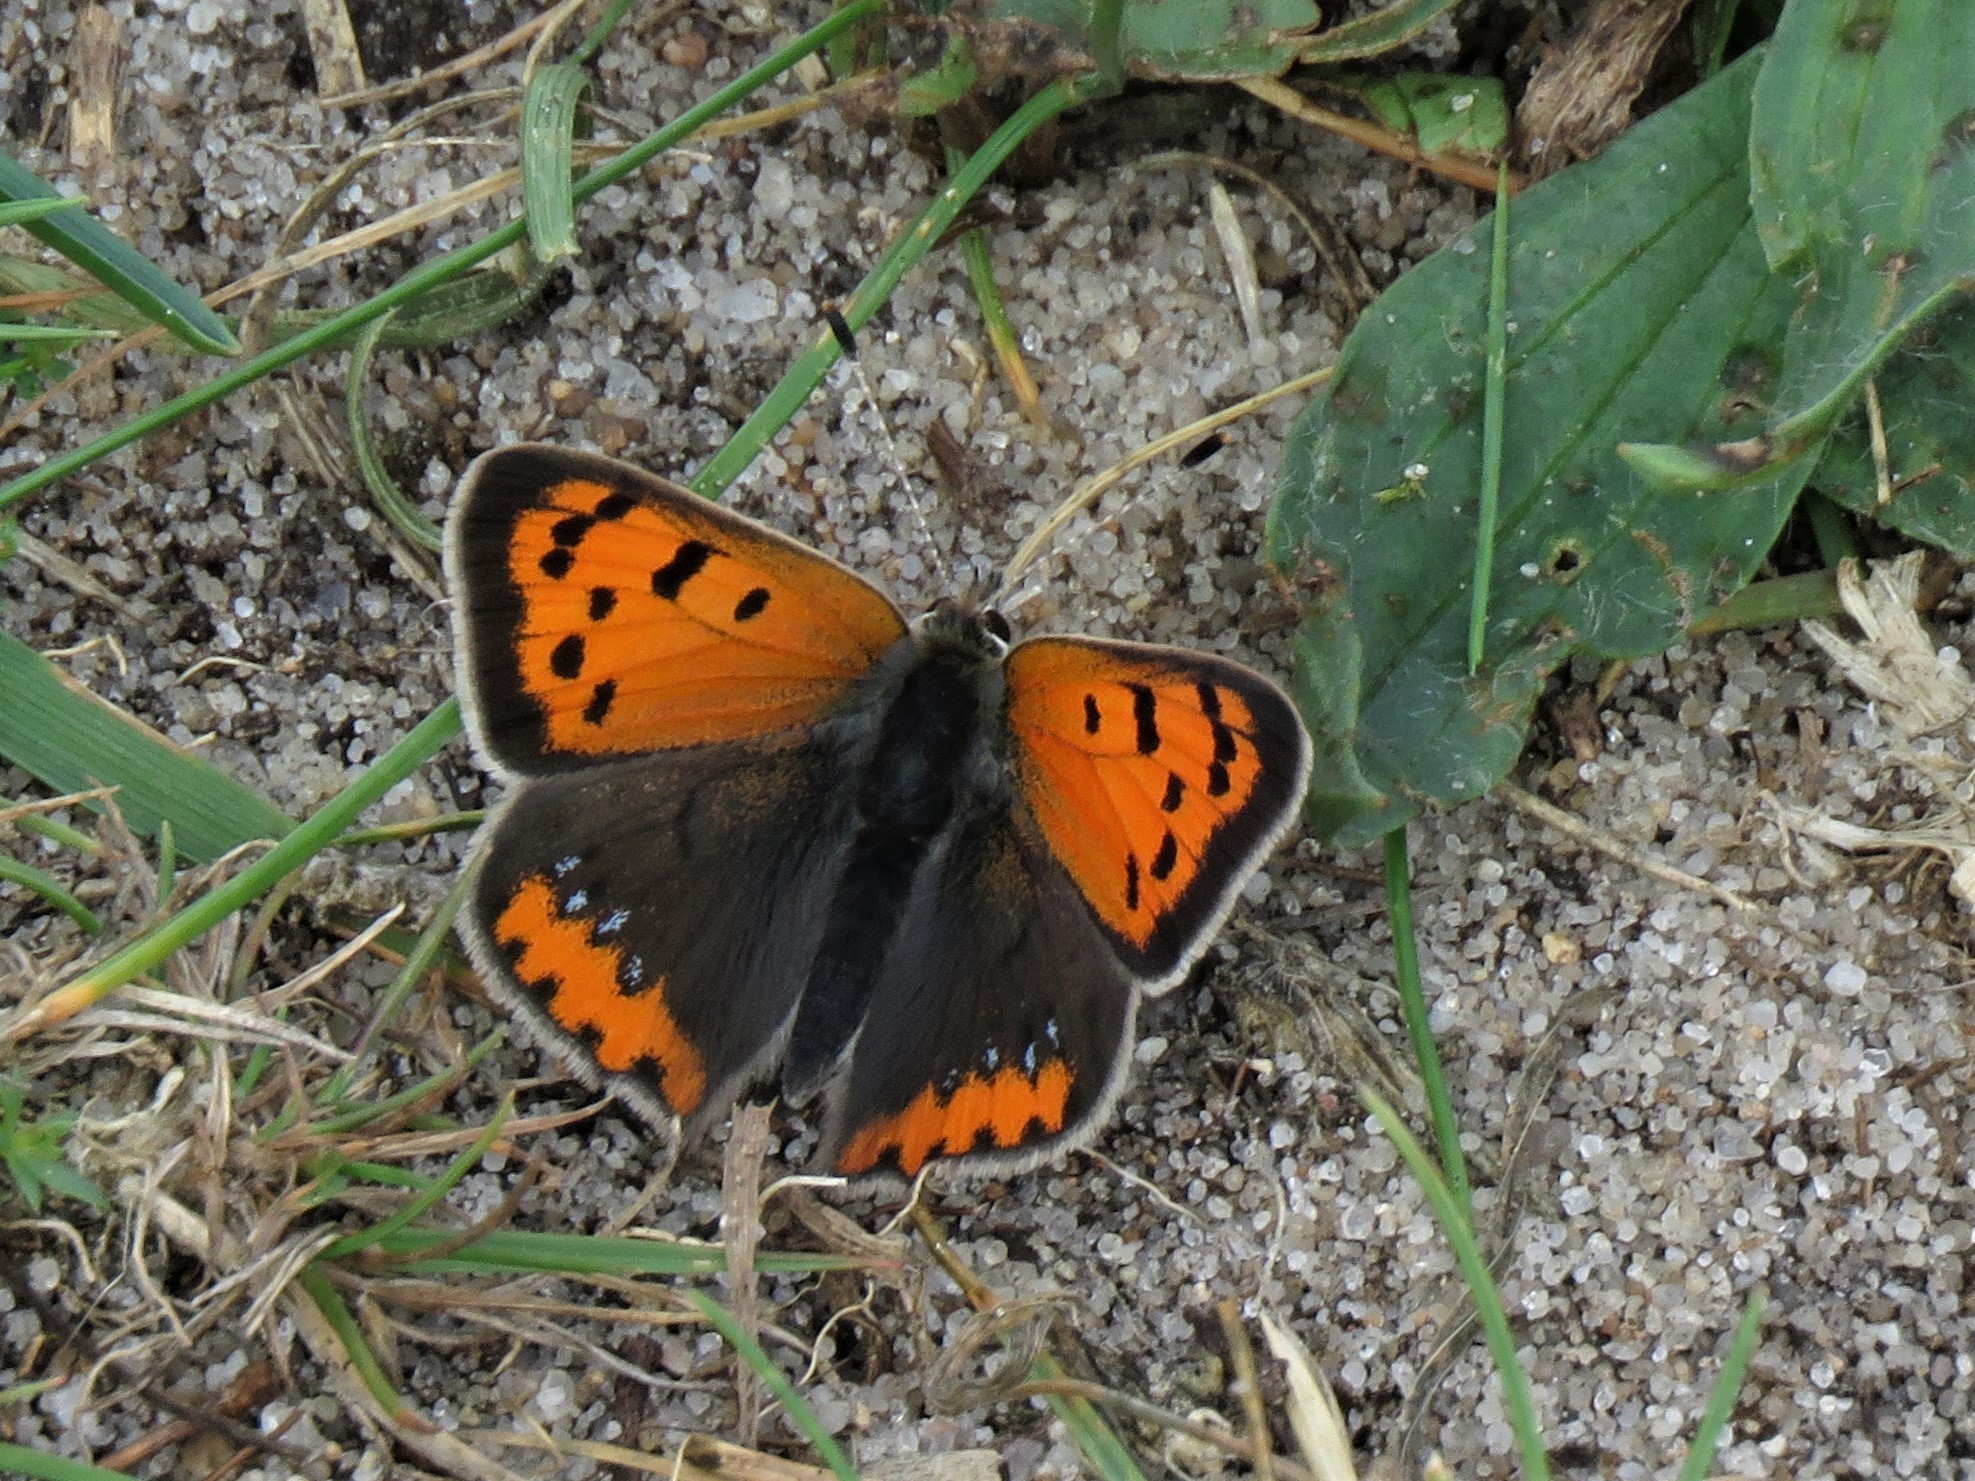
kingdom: Animalia
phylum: Arthropoda
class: Insecta
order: Lepidoptera
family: Lycaenidae
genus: Lycaena
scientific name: Lycaena phlaeas
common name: Small copper
